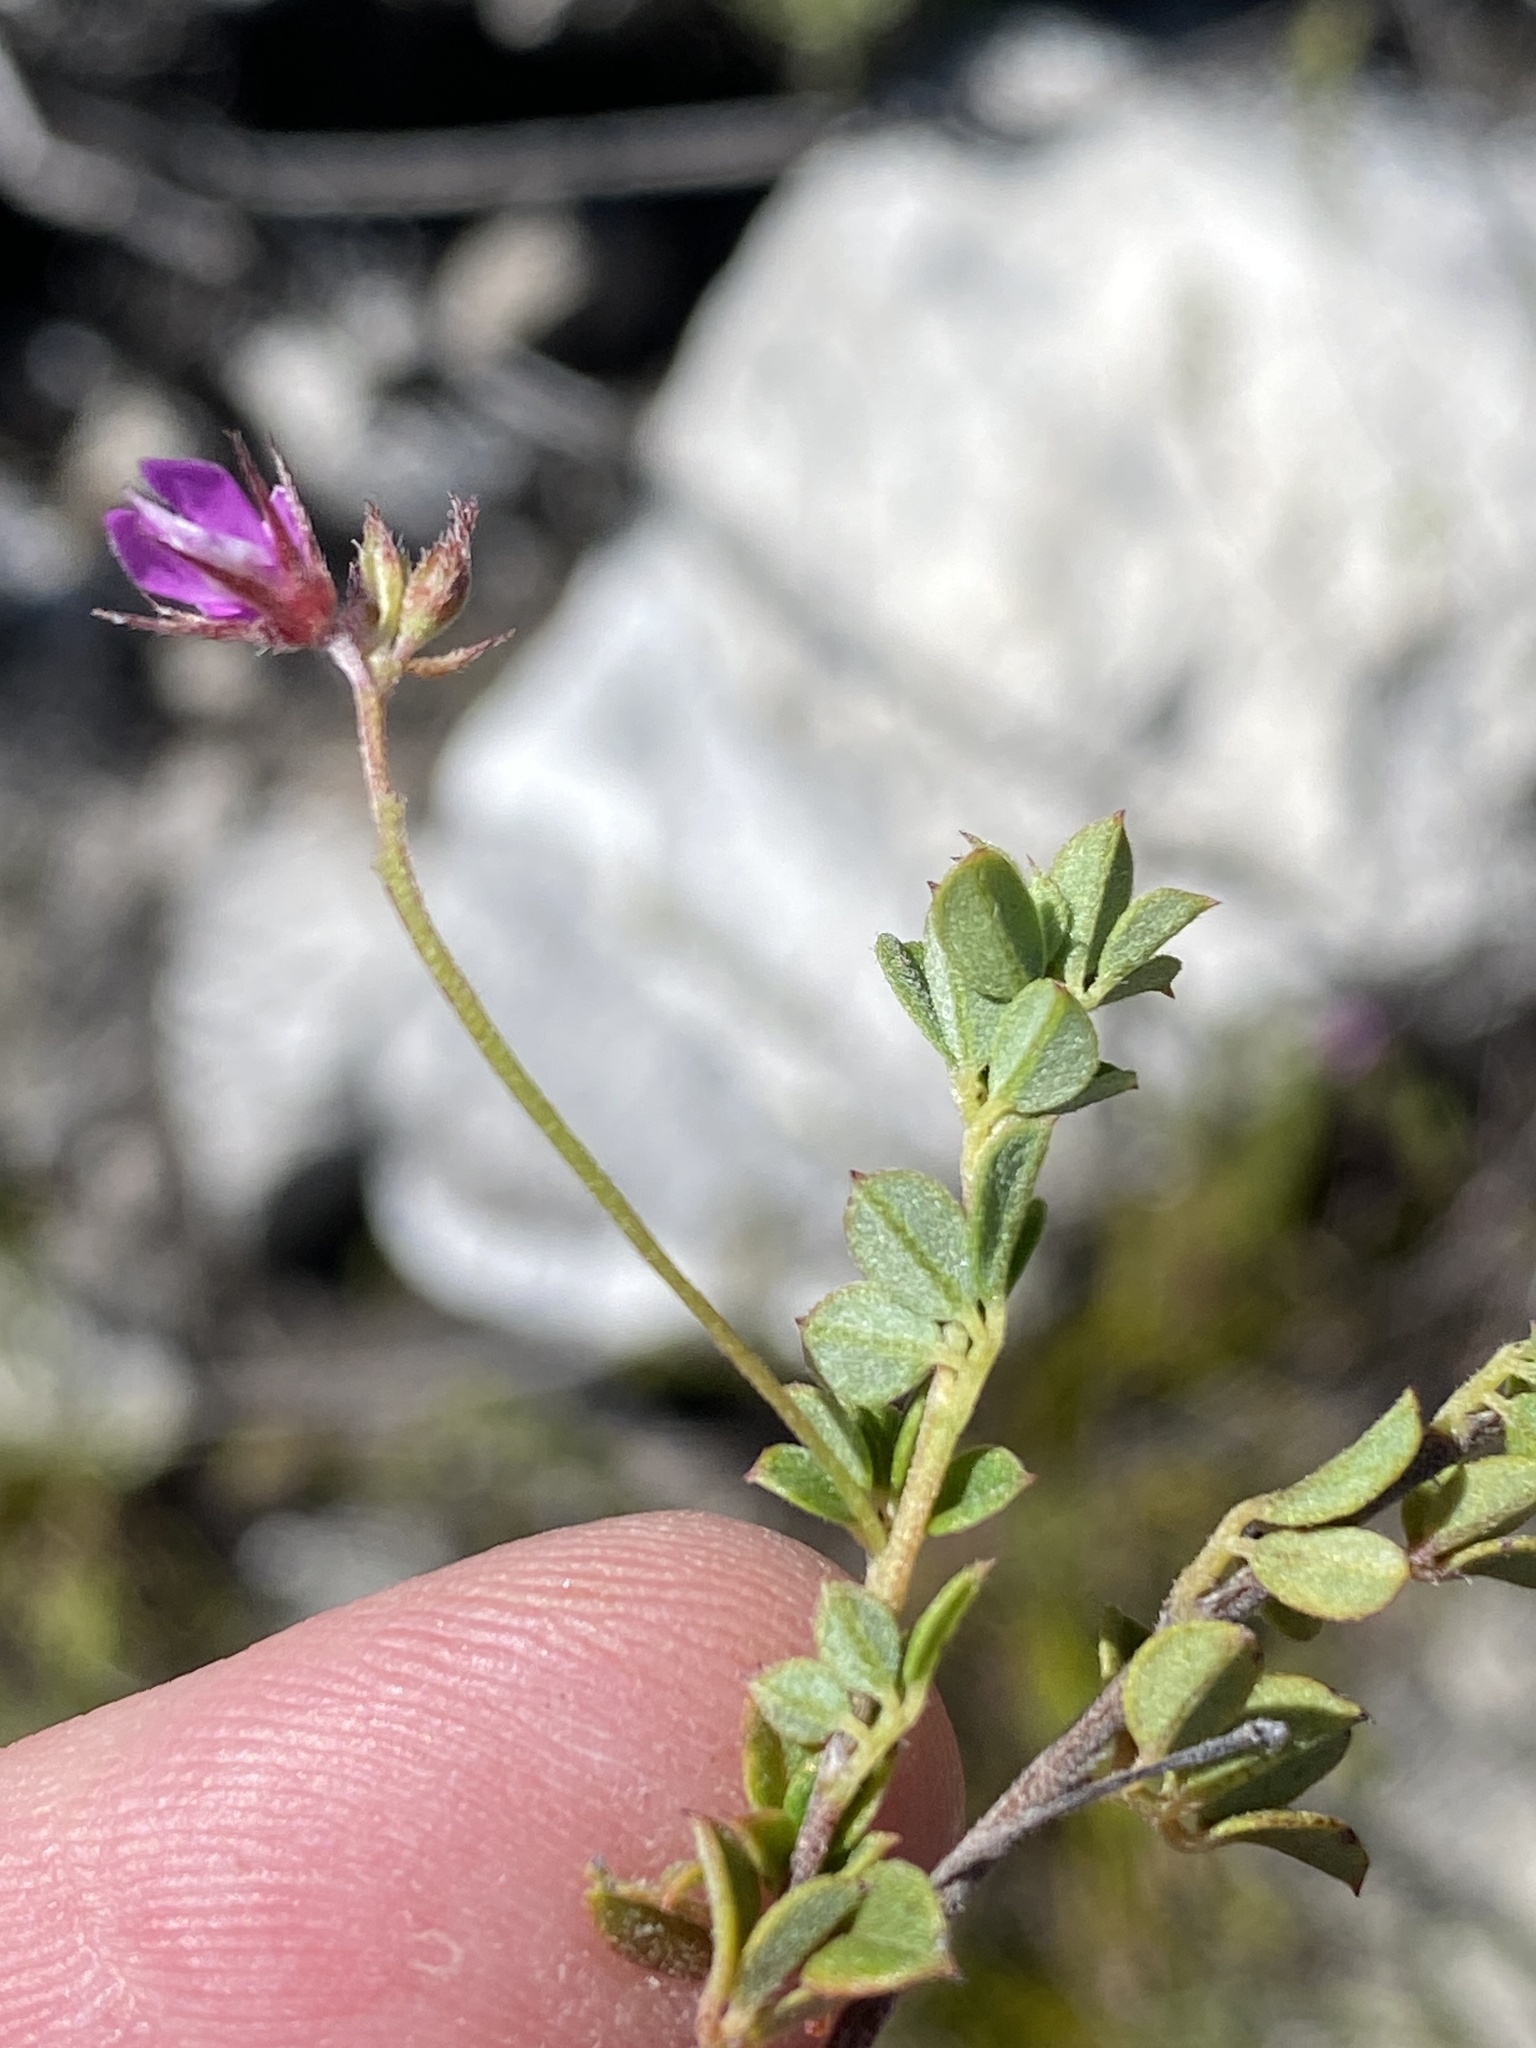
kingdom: Plantae
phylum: Tracheophyta
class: Magnoliopsida
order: Fabales
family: Fabaceae
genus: Indigofera
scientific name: Indigofera sarmentosa
